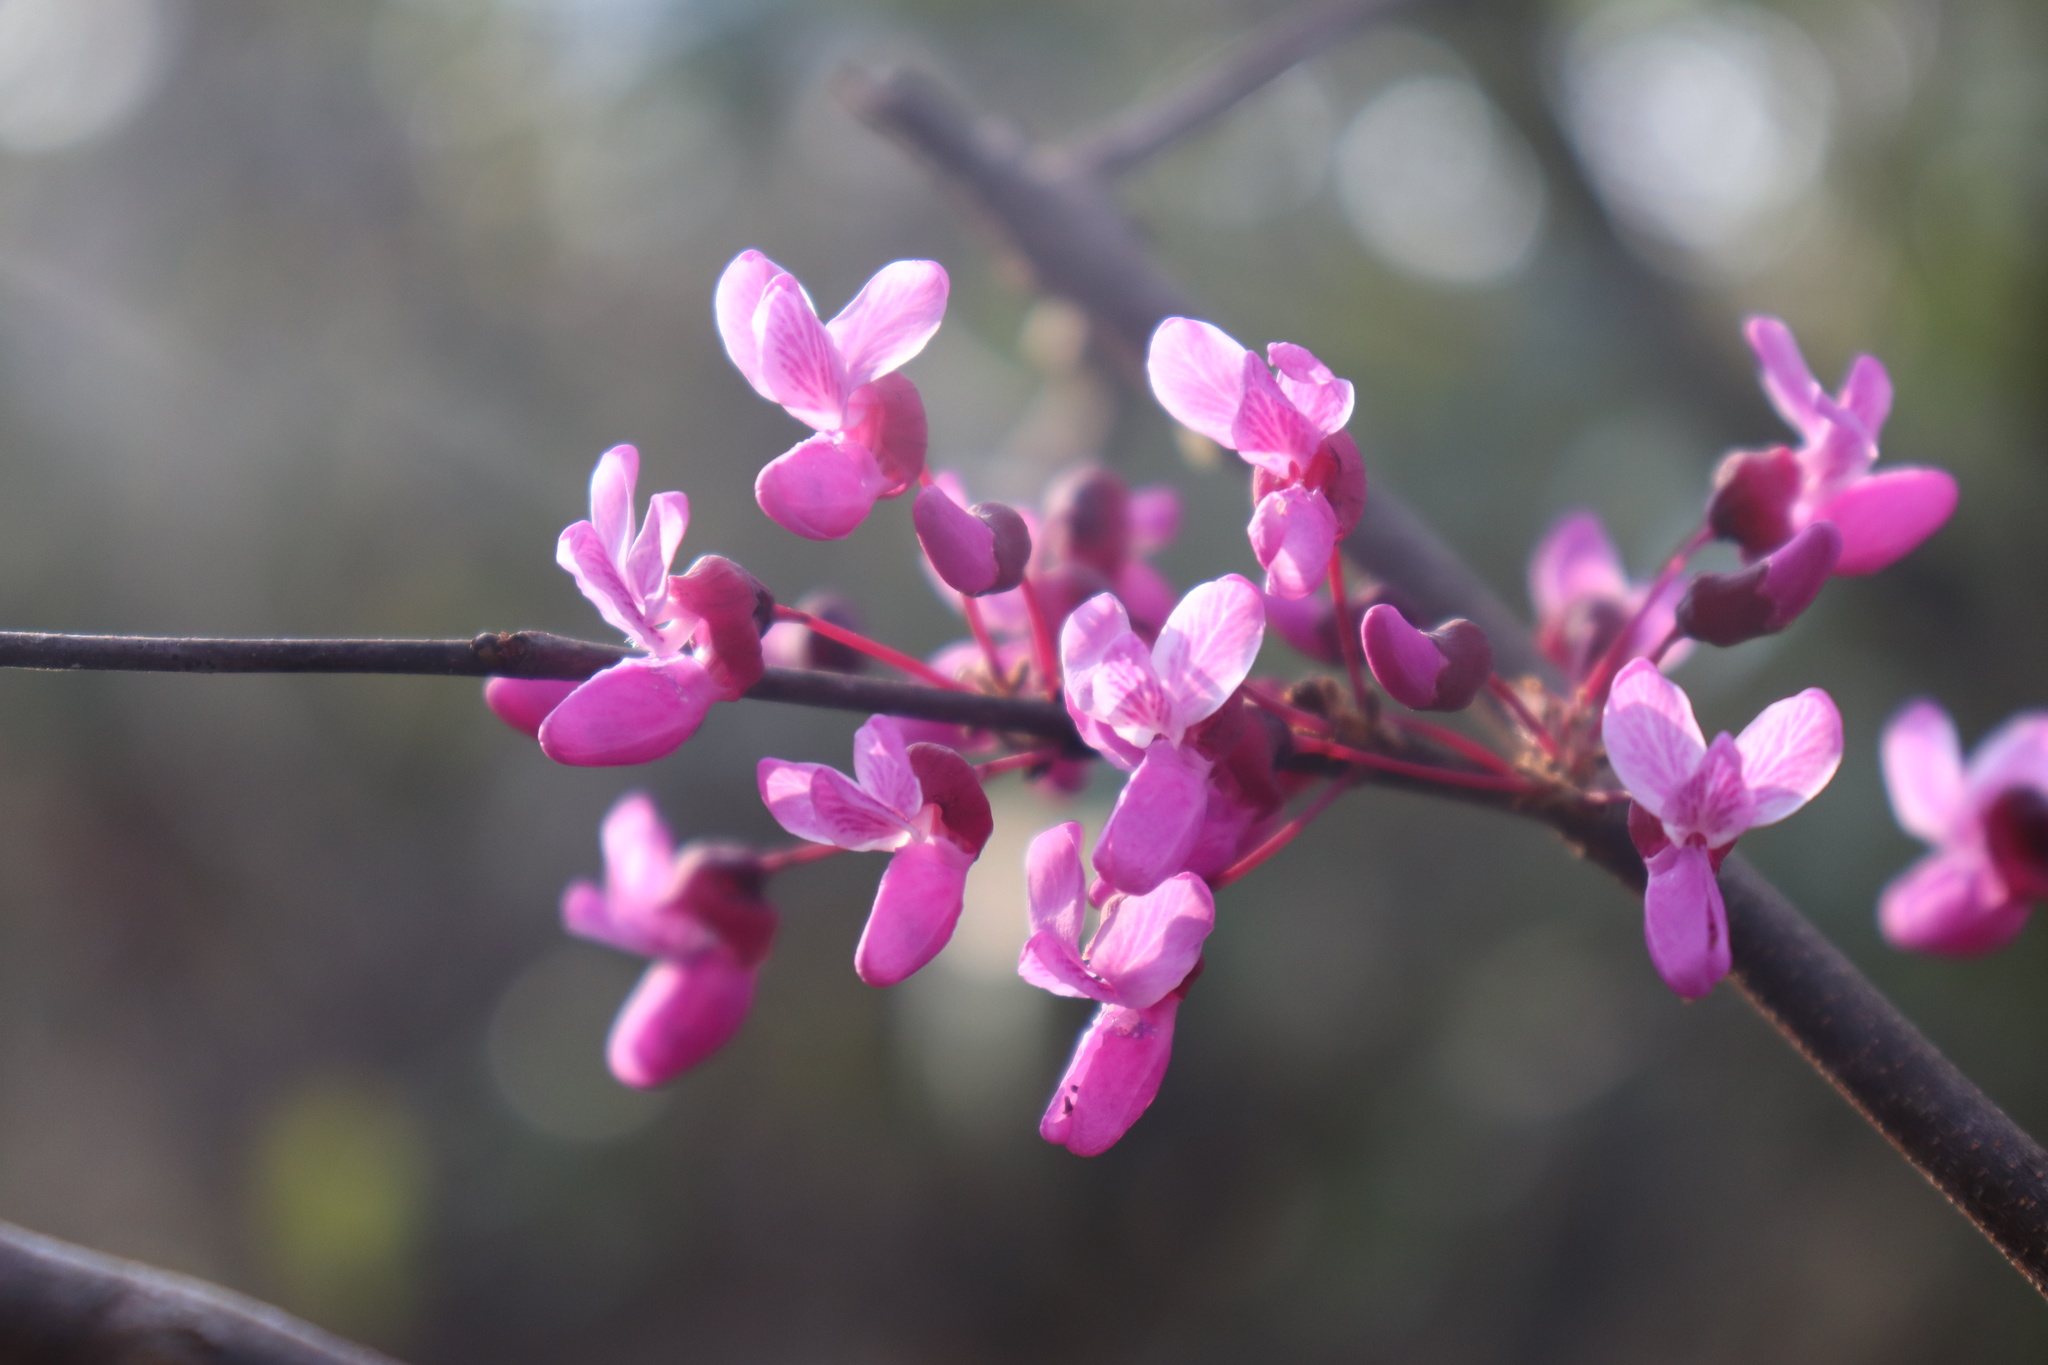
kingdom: Plantae
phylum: Tracheophyta
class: Magnoliopsida
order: Fabales
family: Fabaceae
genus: Cercis
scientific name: Cercis canadensis
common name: Eastern redbud
